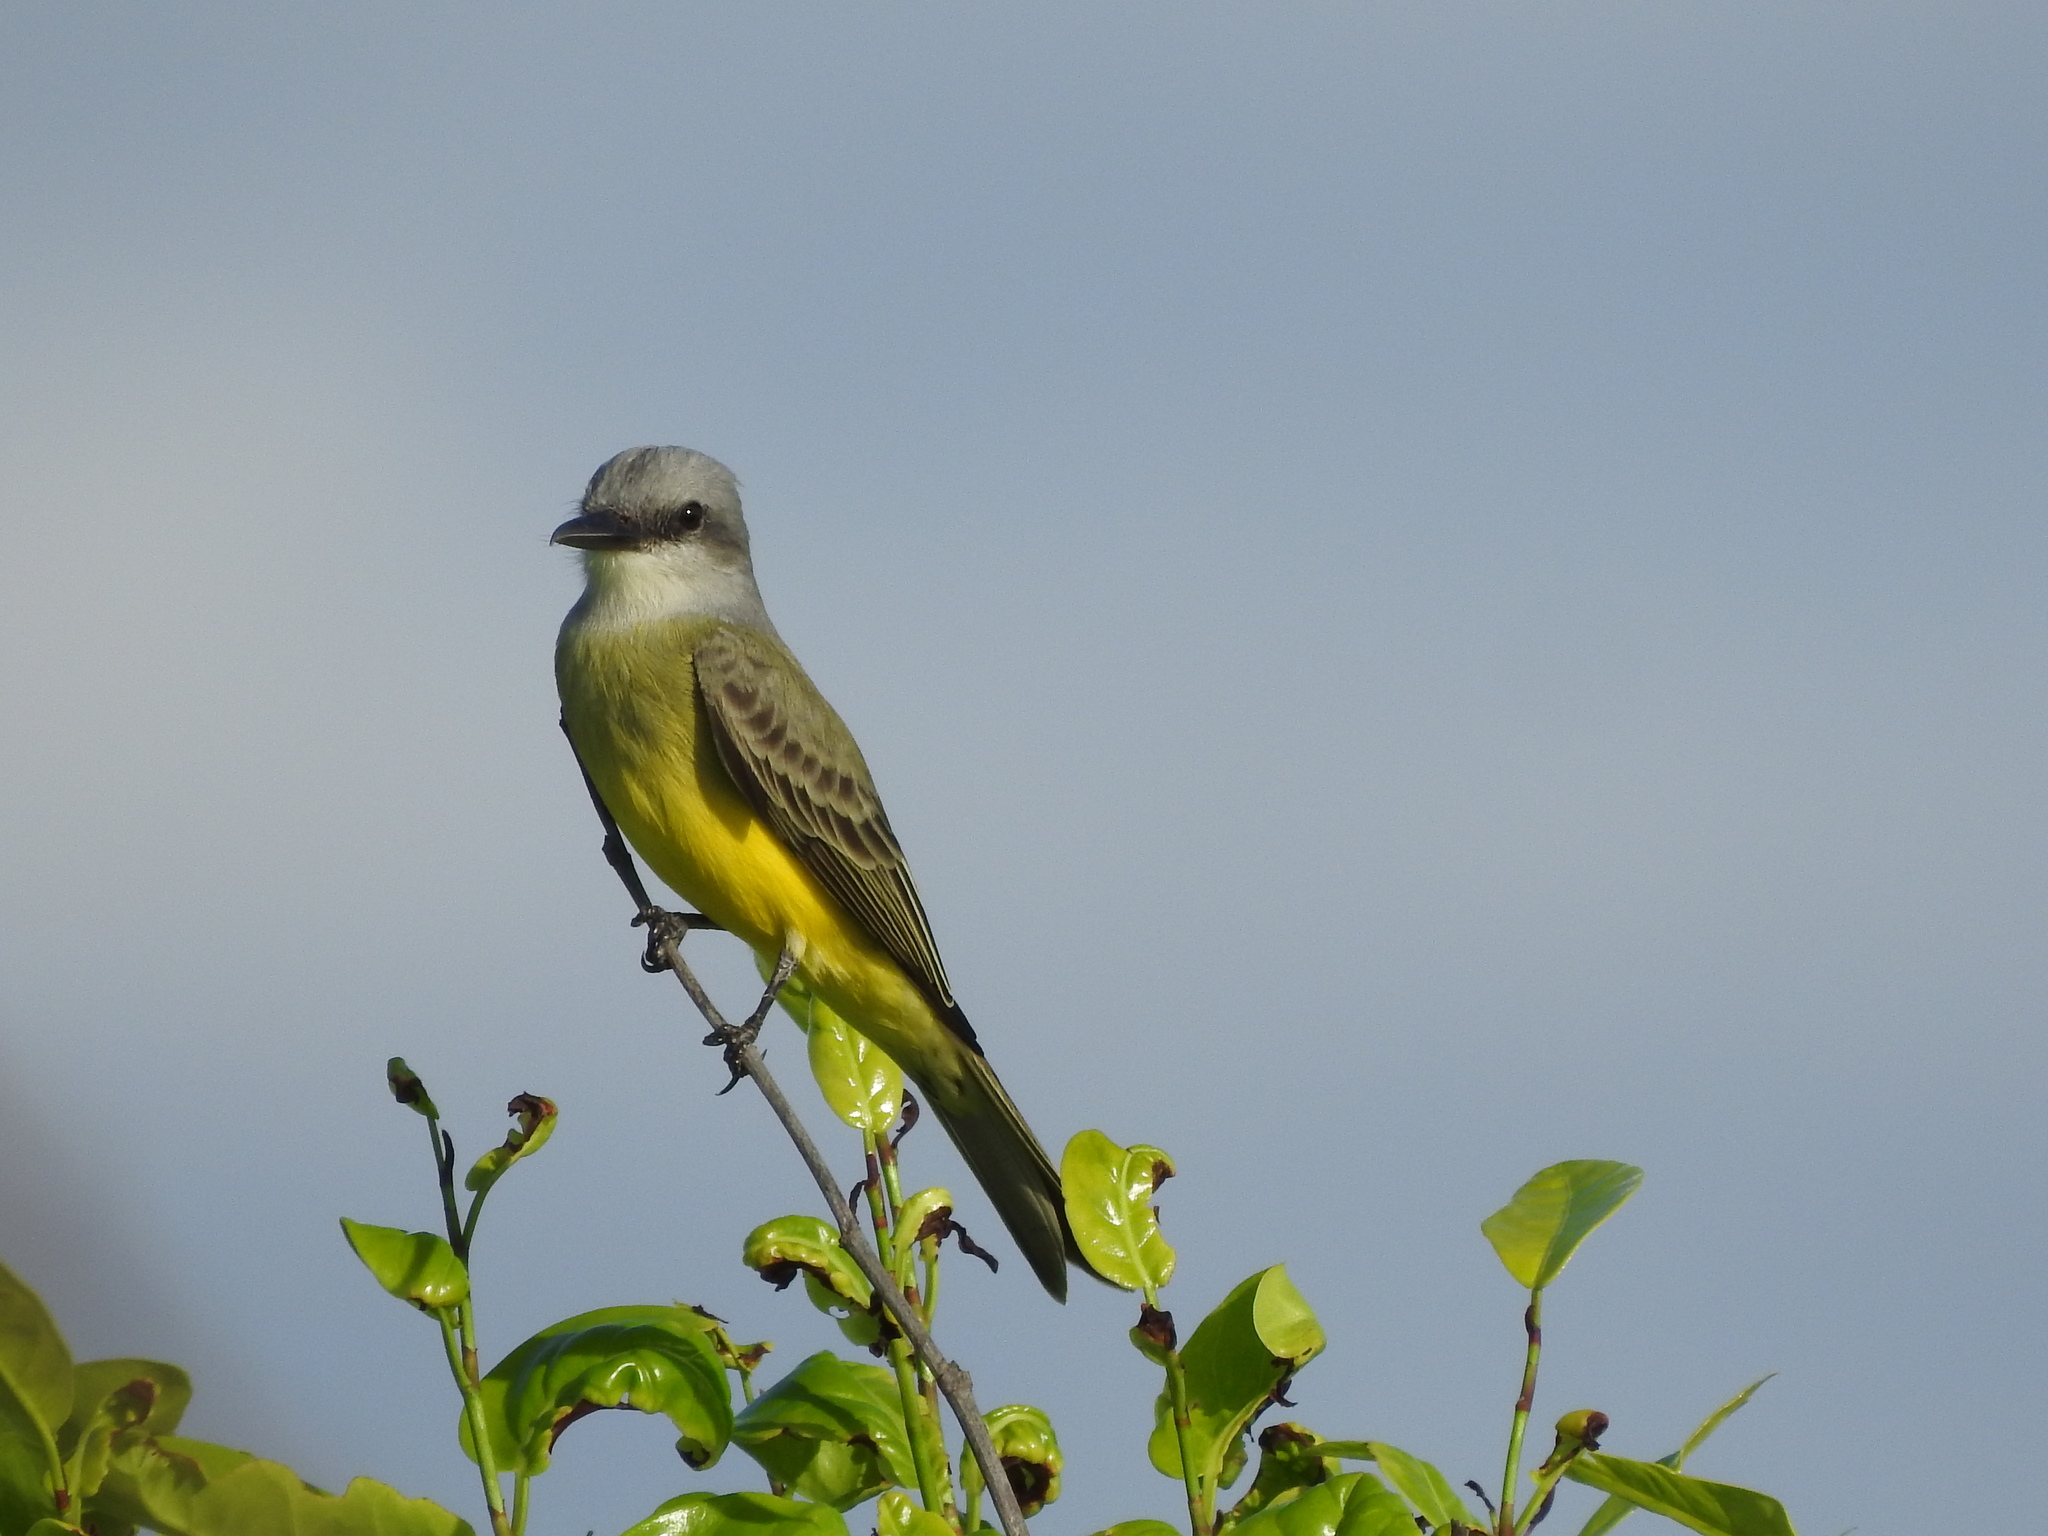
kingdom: Animalia
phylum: Chordata
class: Aves
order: Passeriformes
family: Tyrannidae
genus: Tyrannus
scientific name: Tyrannus melancholicus
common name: Tropical kingbird
